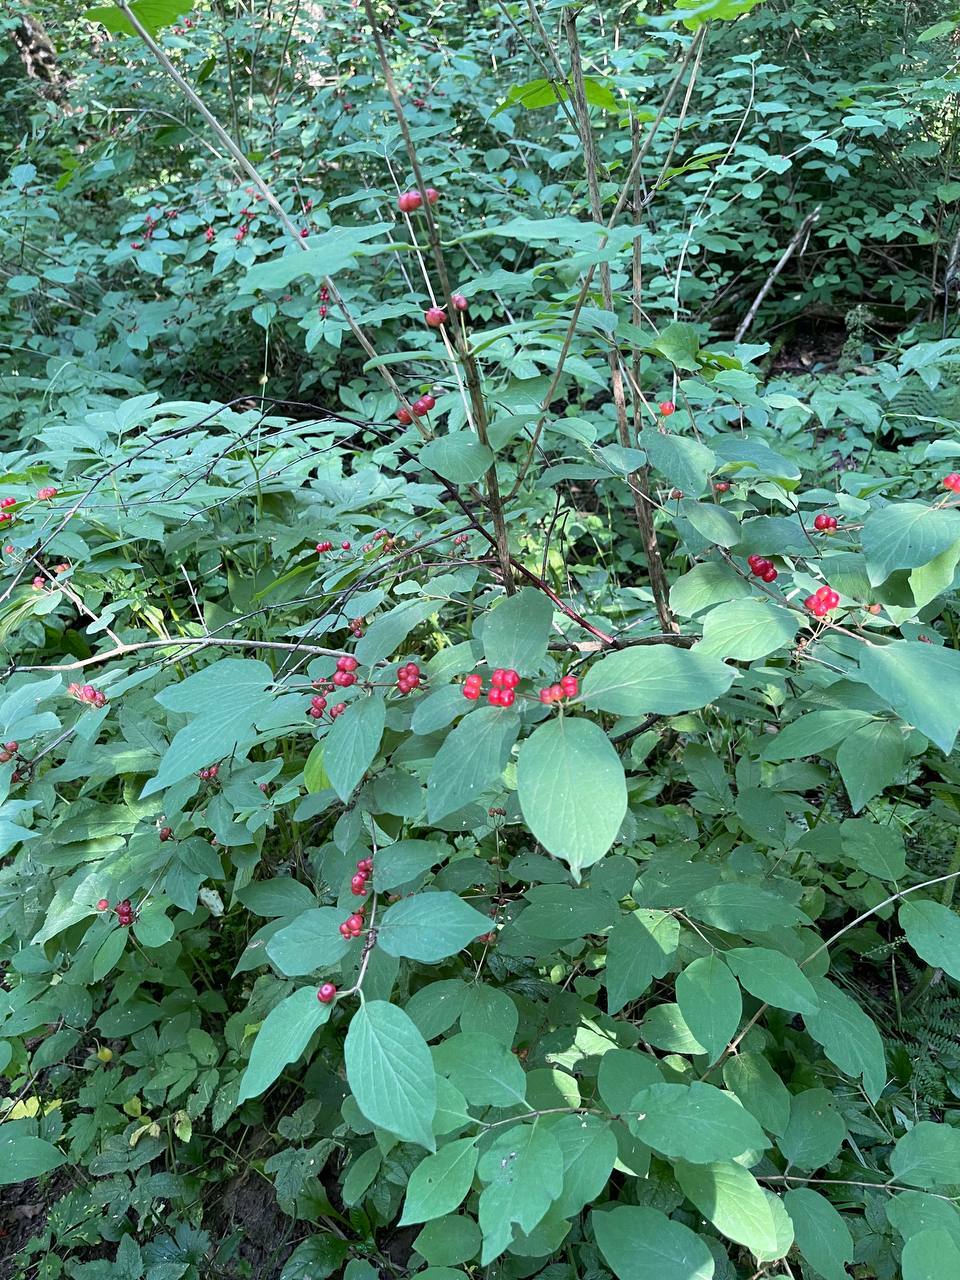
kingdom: Plantae
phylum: Tracheophyta
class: Magnoliopsida
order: Dipsacales
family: Caprifoliaceae
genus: Lonicera
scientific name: Lonicera xylosteum
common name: Fly honeysuckle
